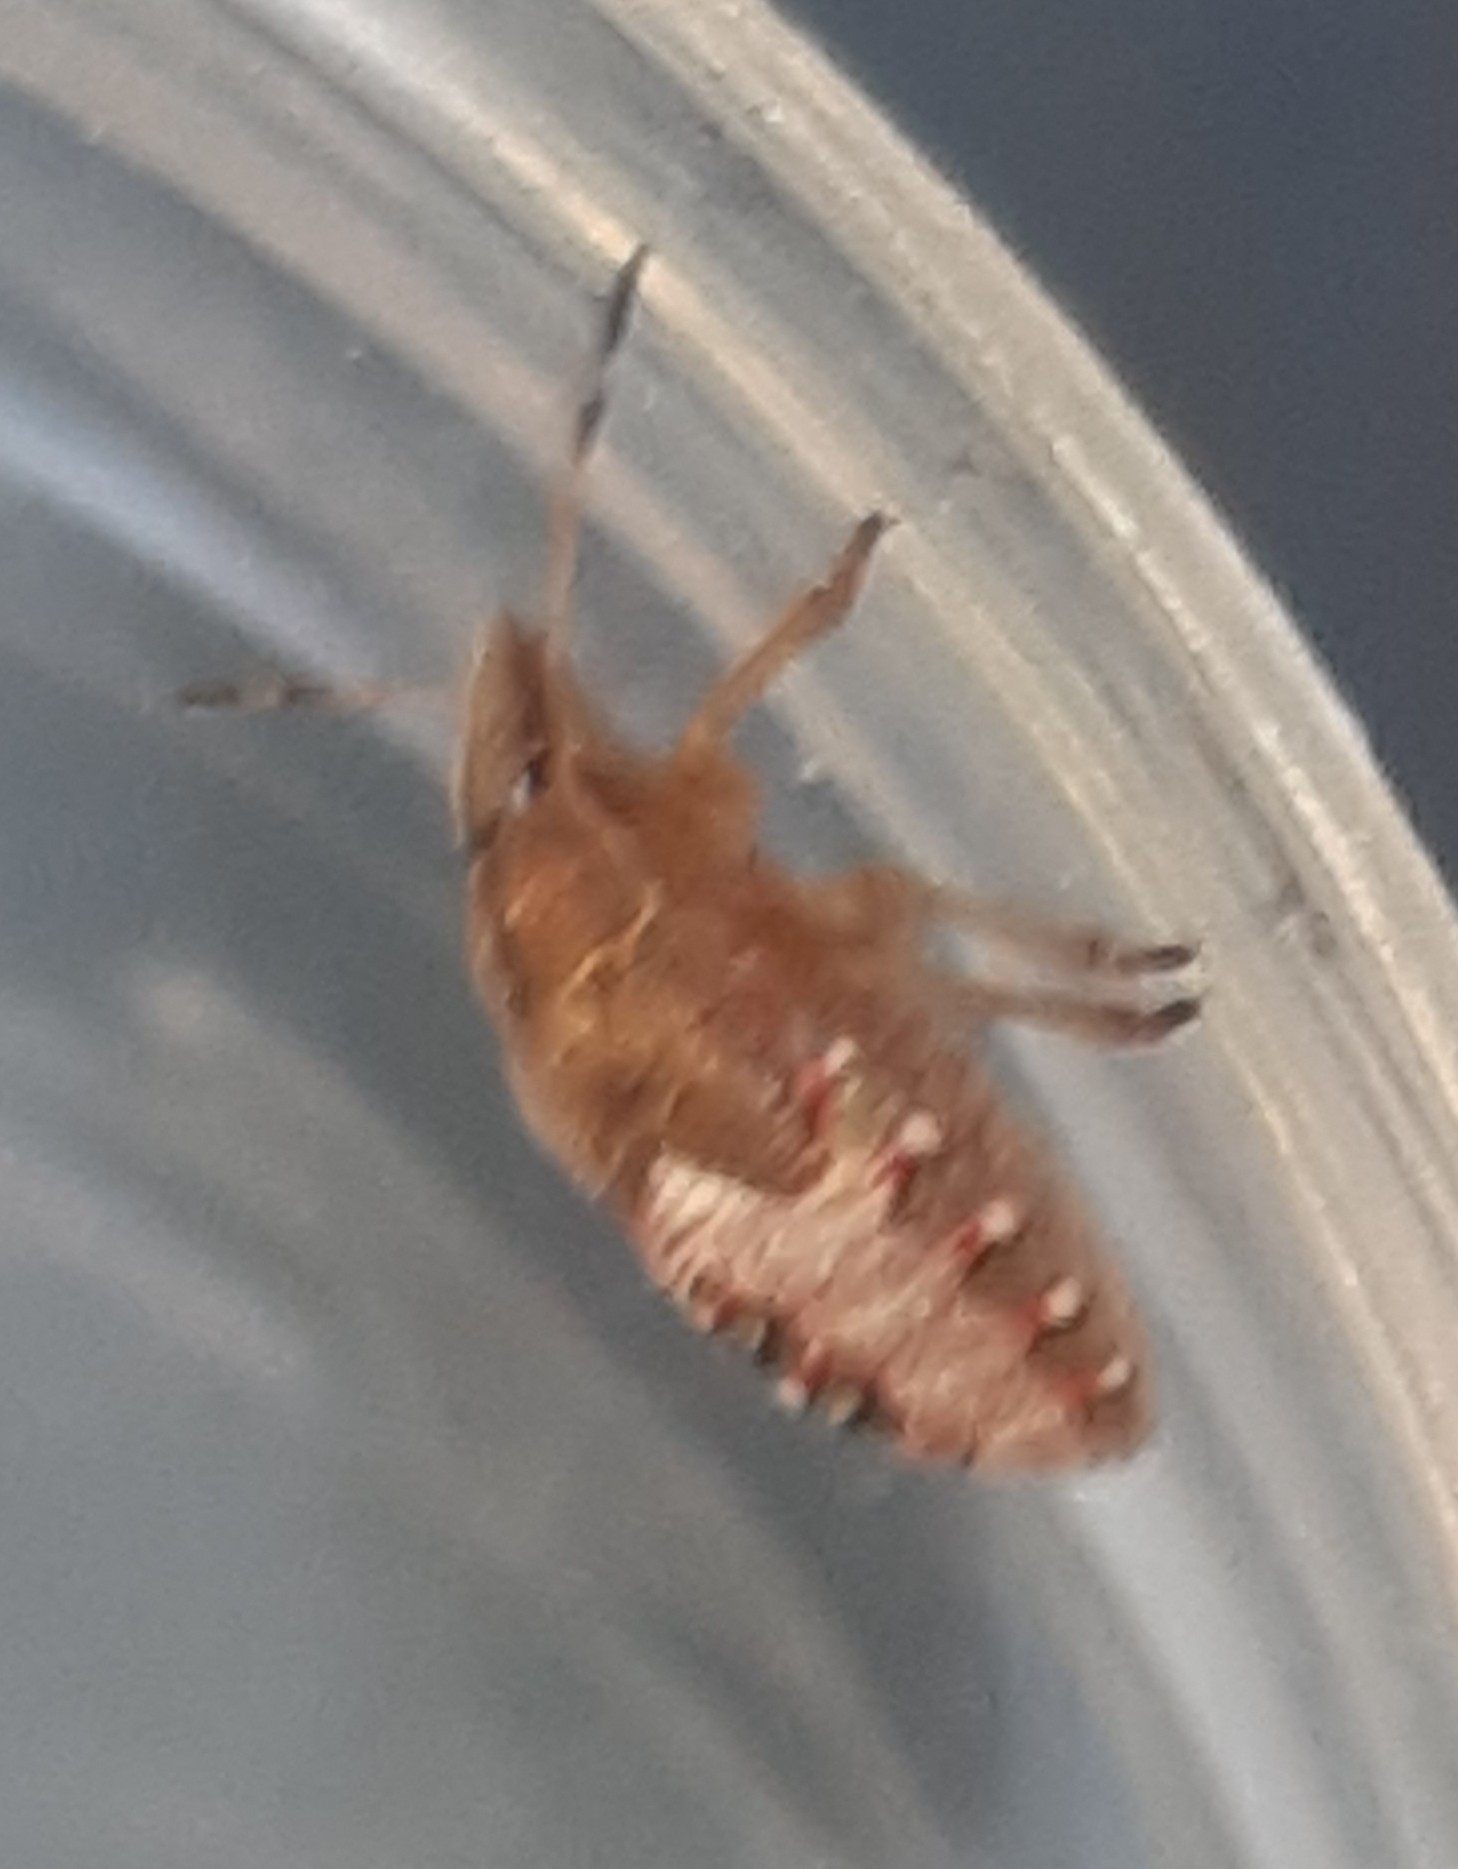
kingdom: Animalia
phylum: Arthropoda
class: Insecta
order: Hemiptera
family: Pentatomidae
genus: Holcostethus
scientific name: Holcostethus strictus
